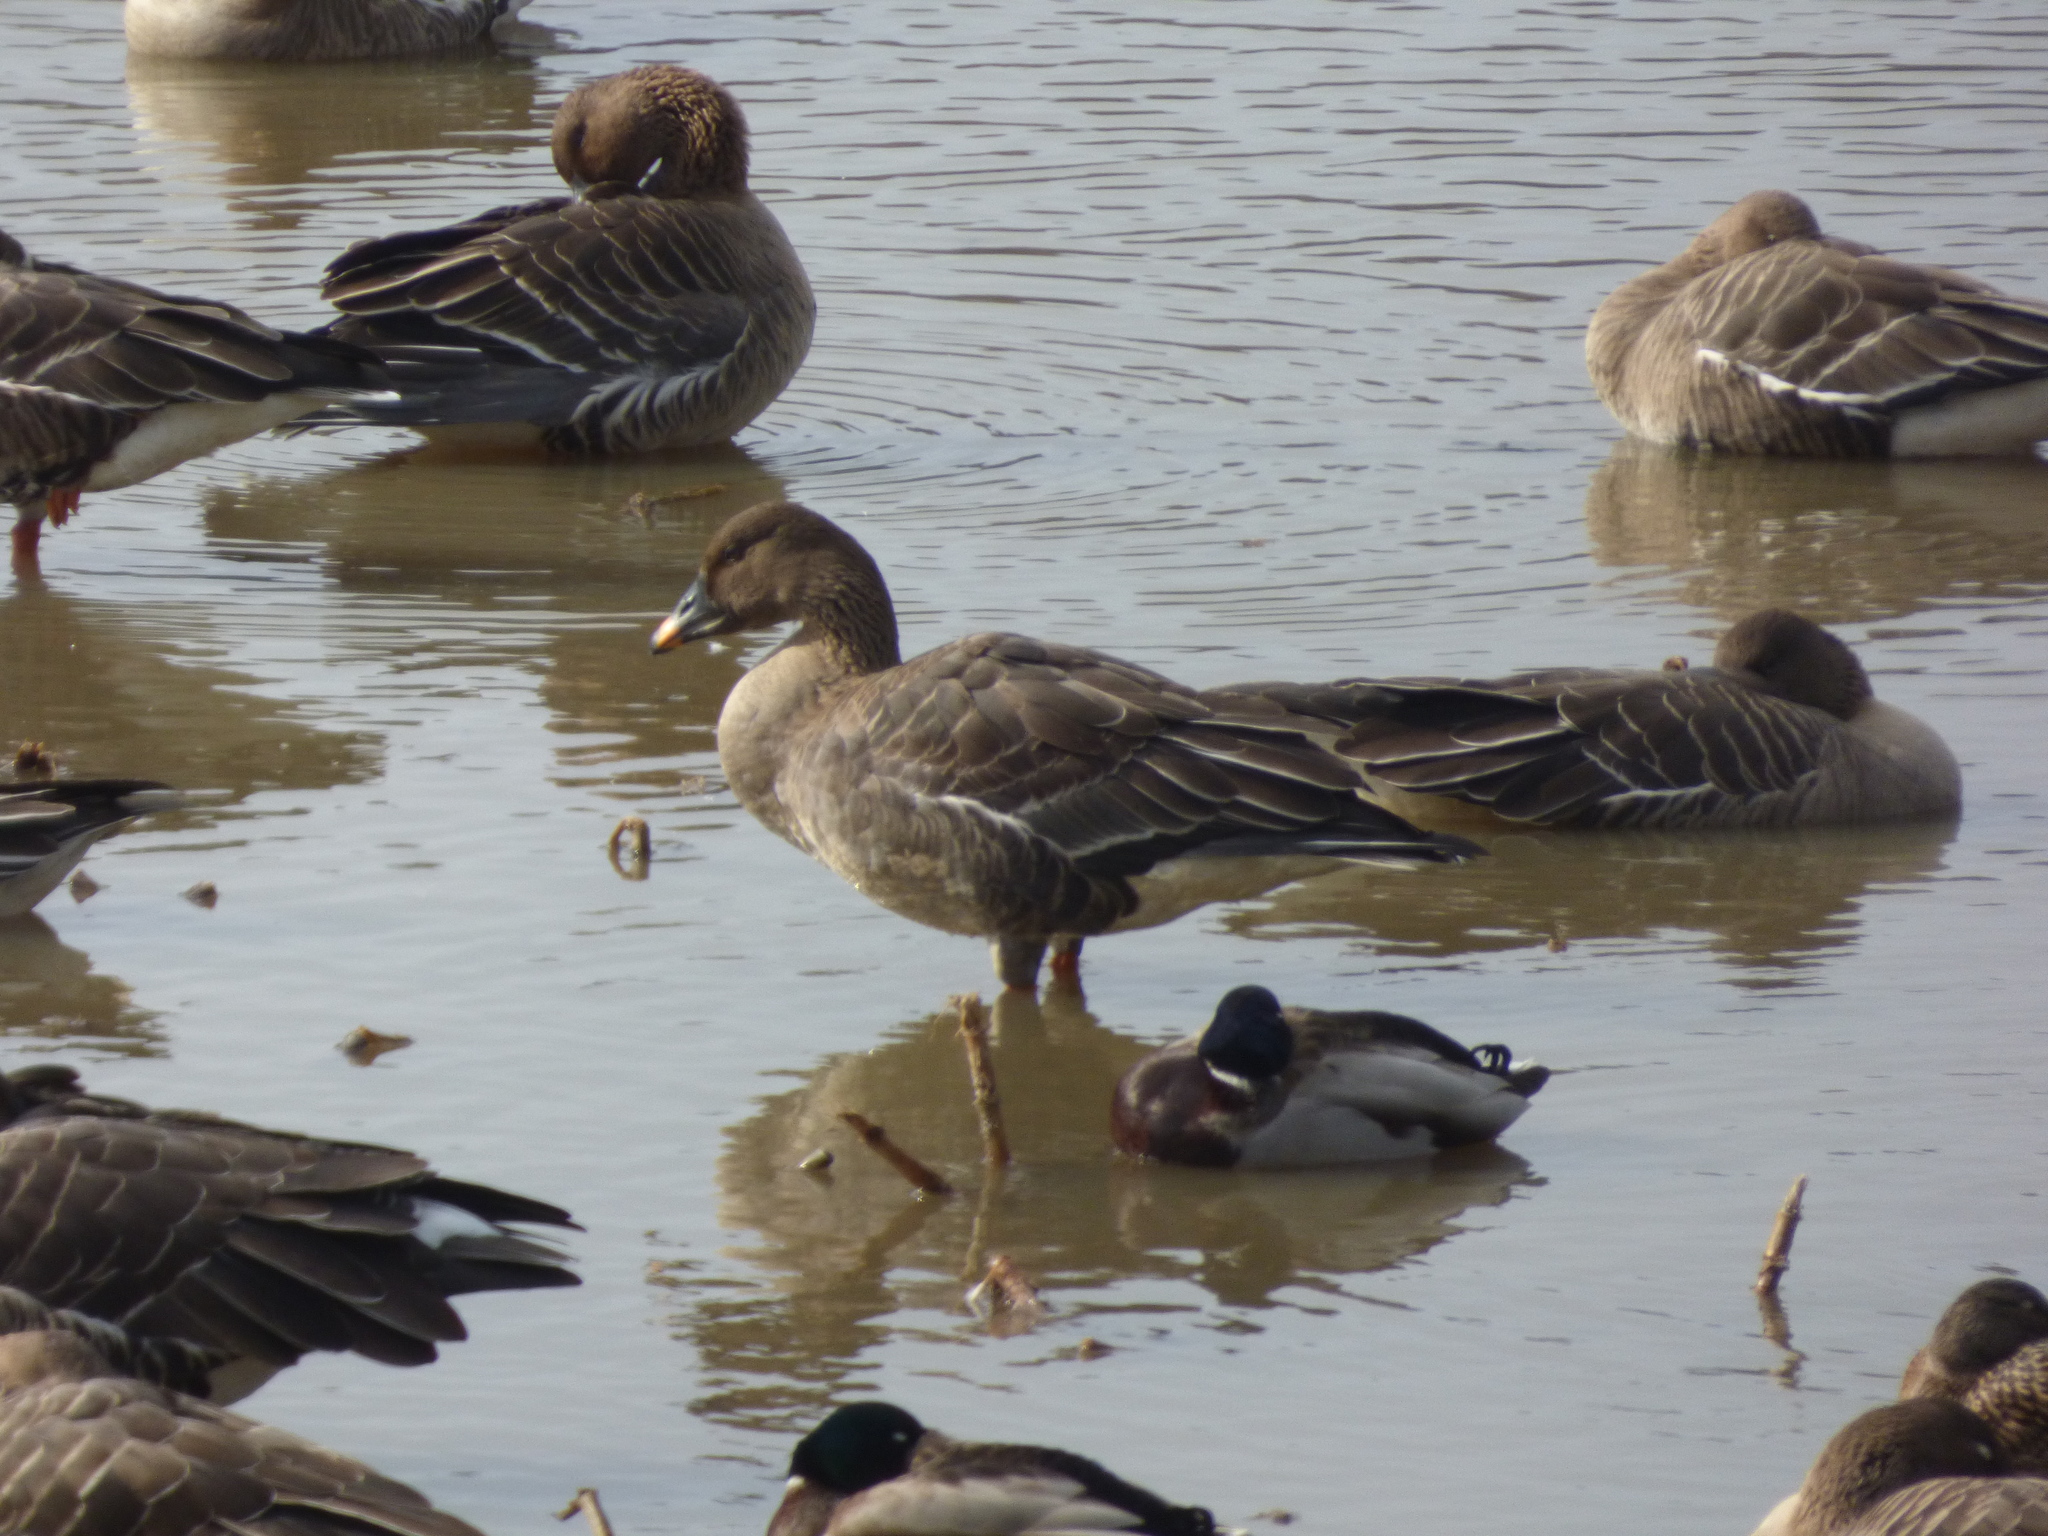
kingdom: Animalia
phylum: Chordata
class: Aves
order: Anseriformes
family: Anatidae
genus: Anser
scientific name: Anser fabalis
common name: Bean goose
